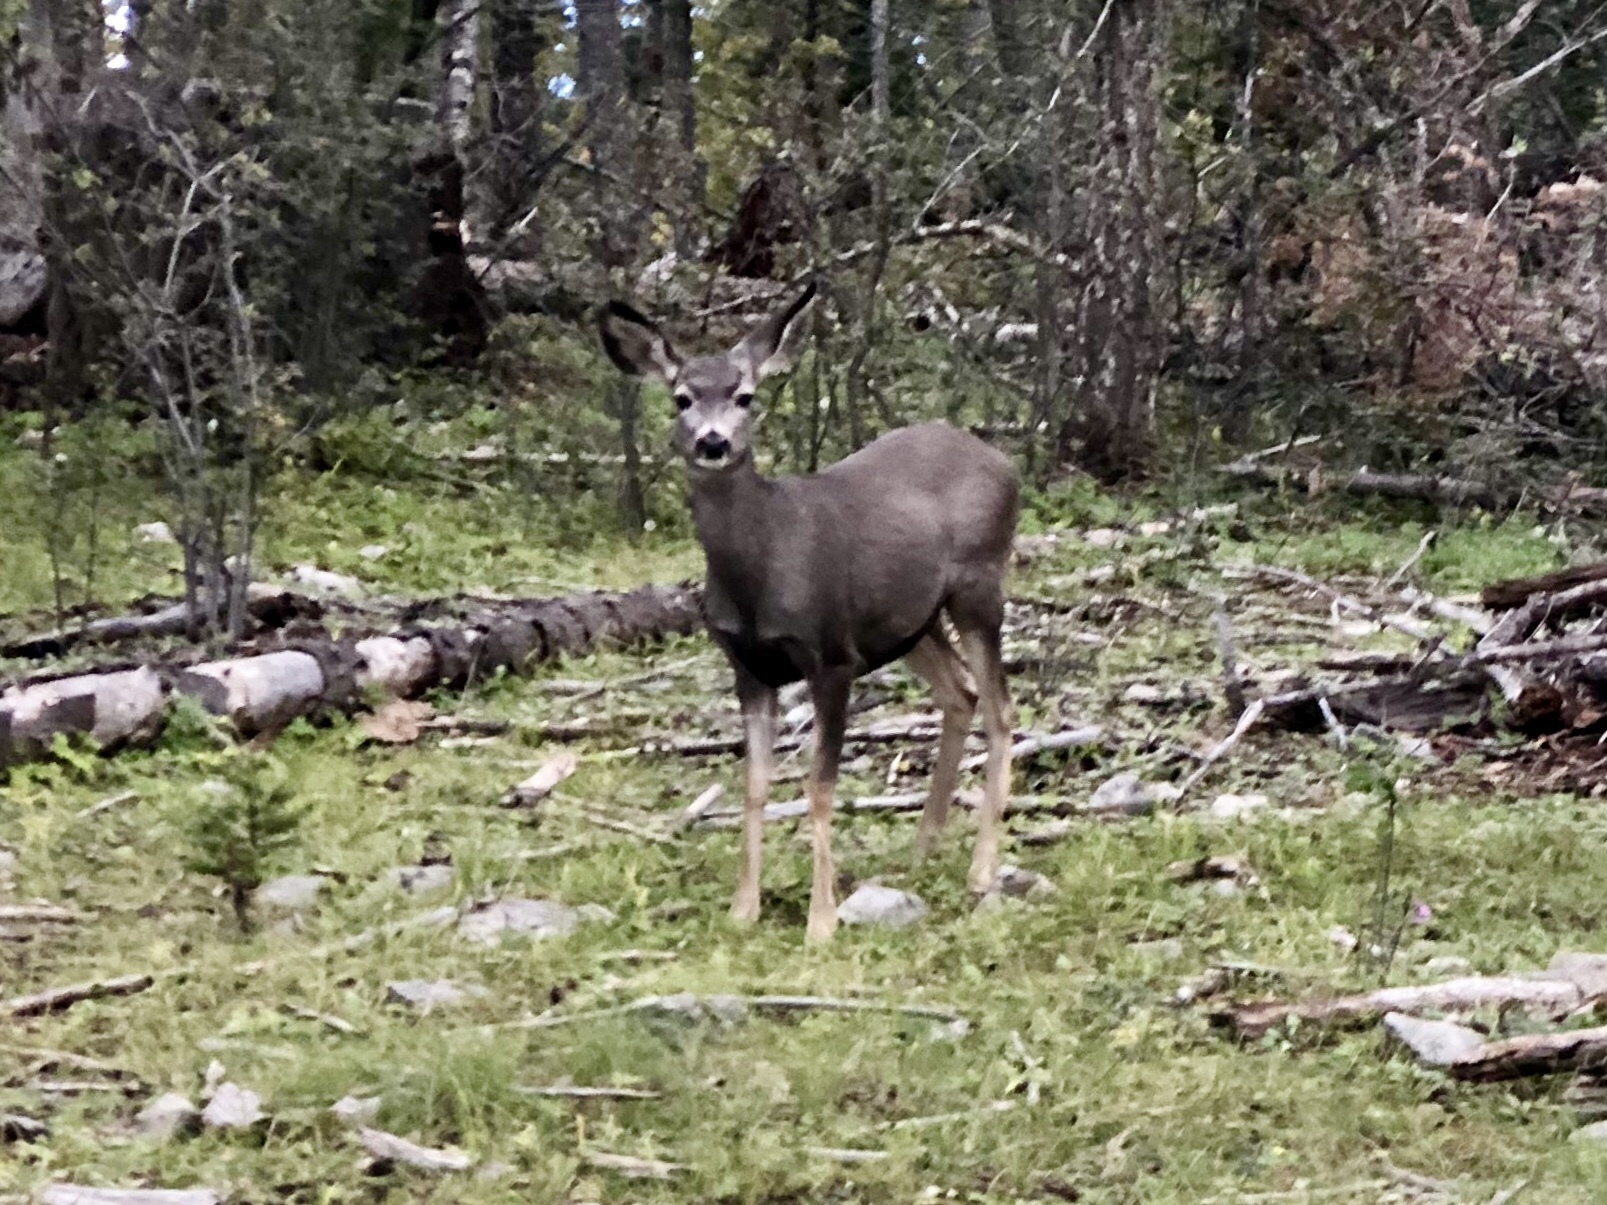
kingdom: Animalia
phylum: Chordata
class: Mammalia
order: Artiodactyla
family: Cervidae
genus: Odocoileus
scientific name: Odocoileus hemionus
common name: Mule deer
